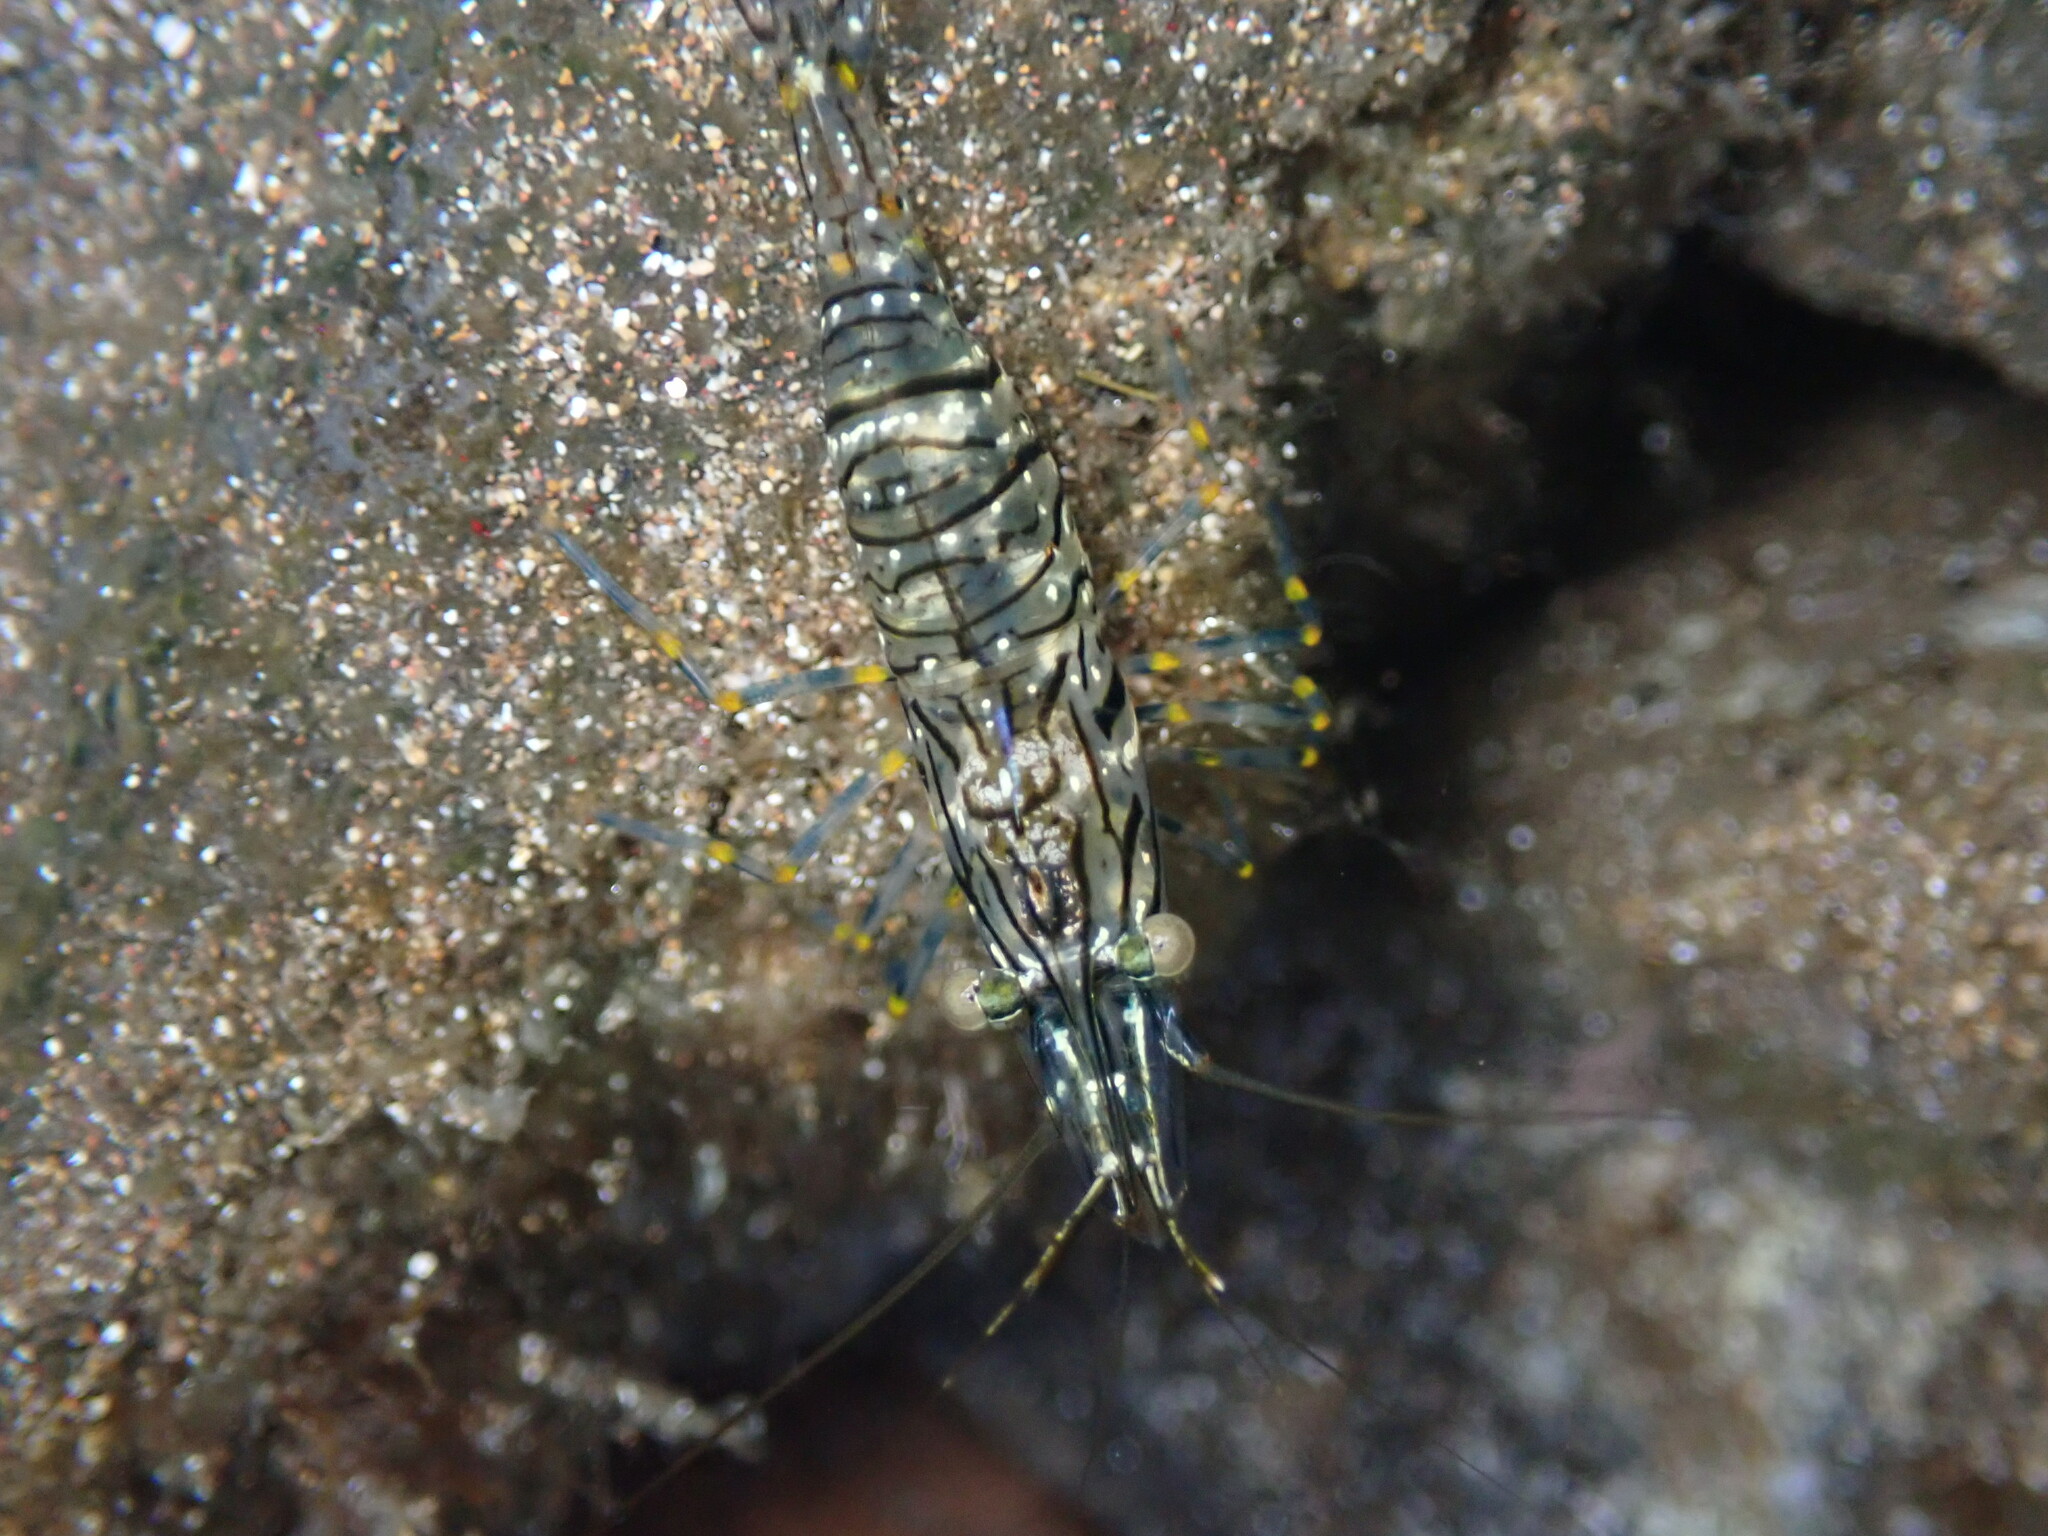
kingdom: Animalia
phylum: Arthropoda
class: Malacostraca
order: Decapoda
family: Palaemonidae
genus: Palaemon
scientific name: Palaemon elegans
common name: Grass prawm
